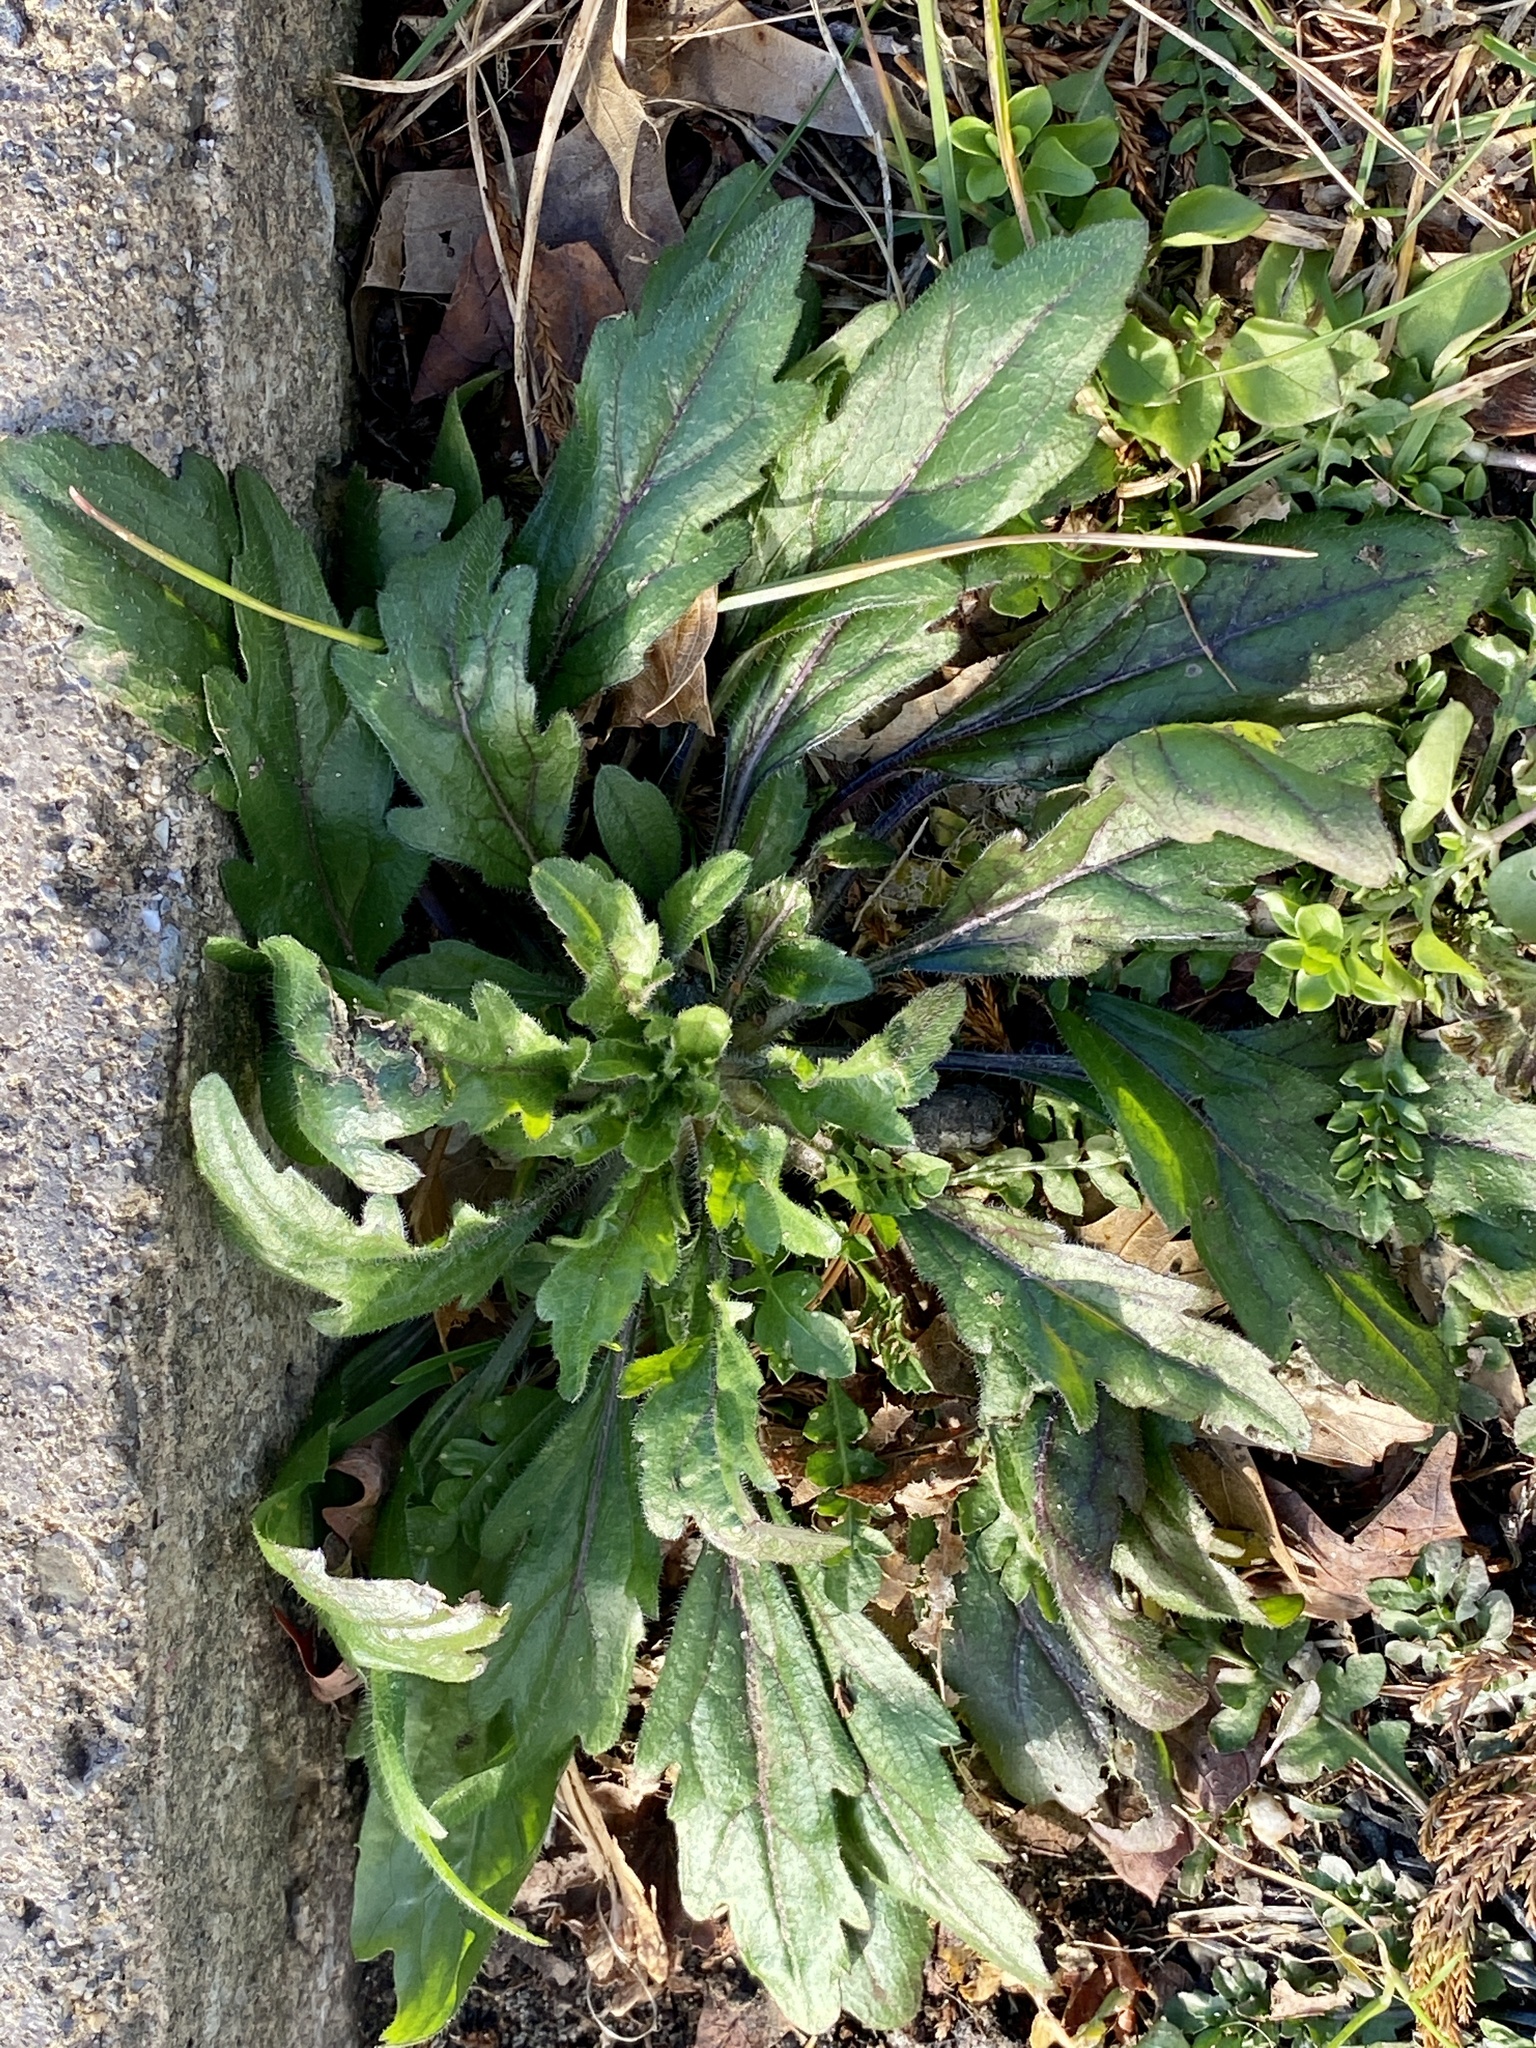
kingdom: Plantae
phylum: Tracheophyta
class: Magnoliopsida
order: Asterales
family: Asteraceae
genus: Erigeron
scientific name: Erigeron canadensis
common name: Canadian fleabane
